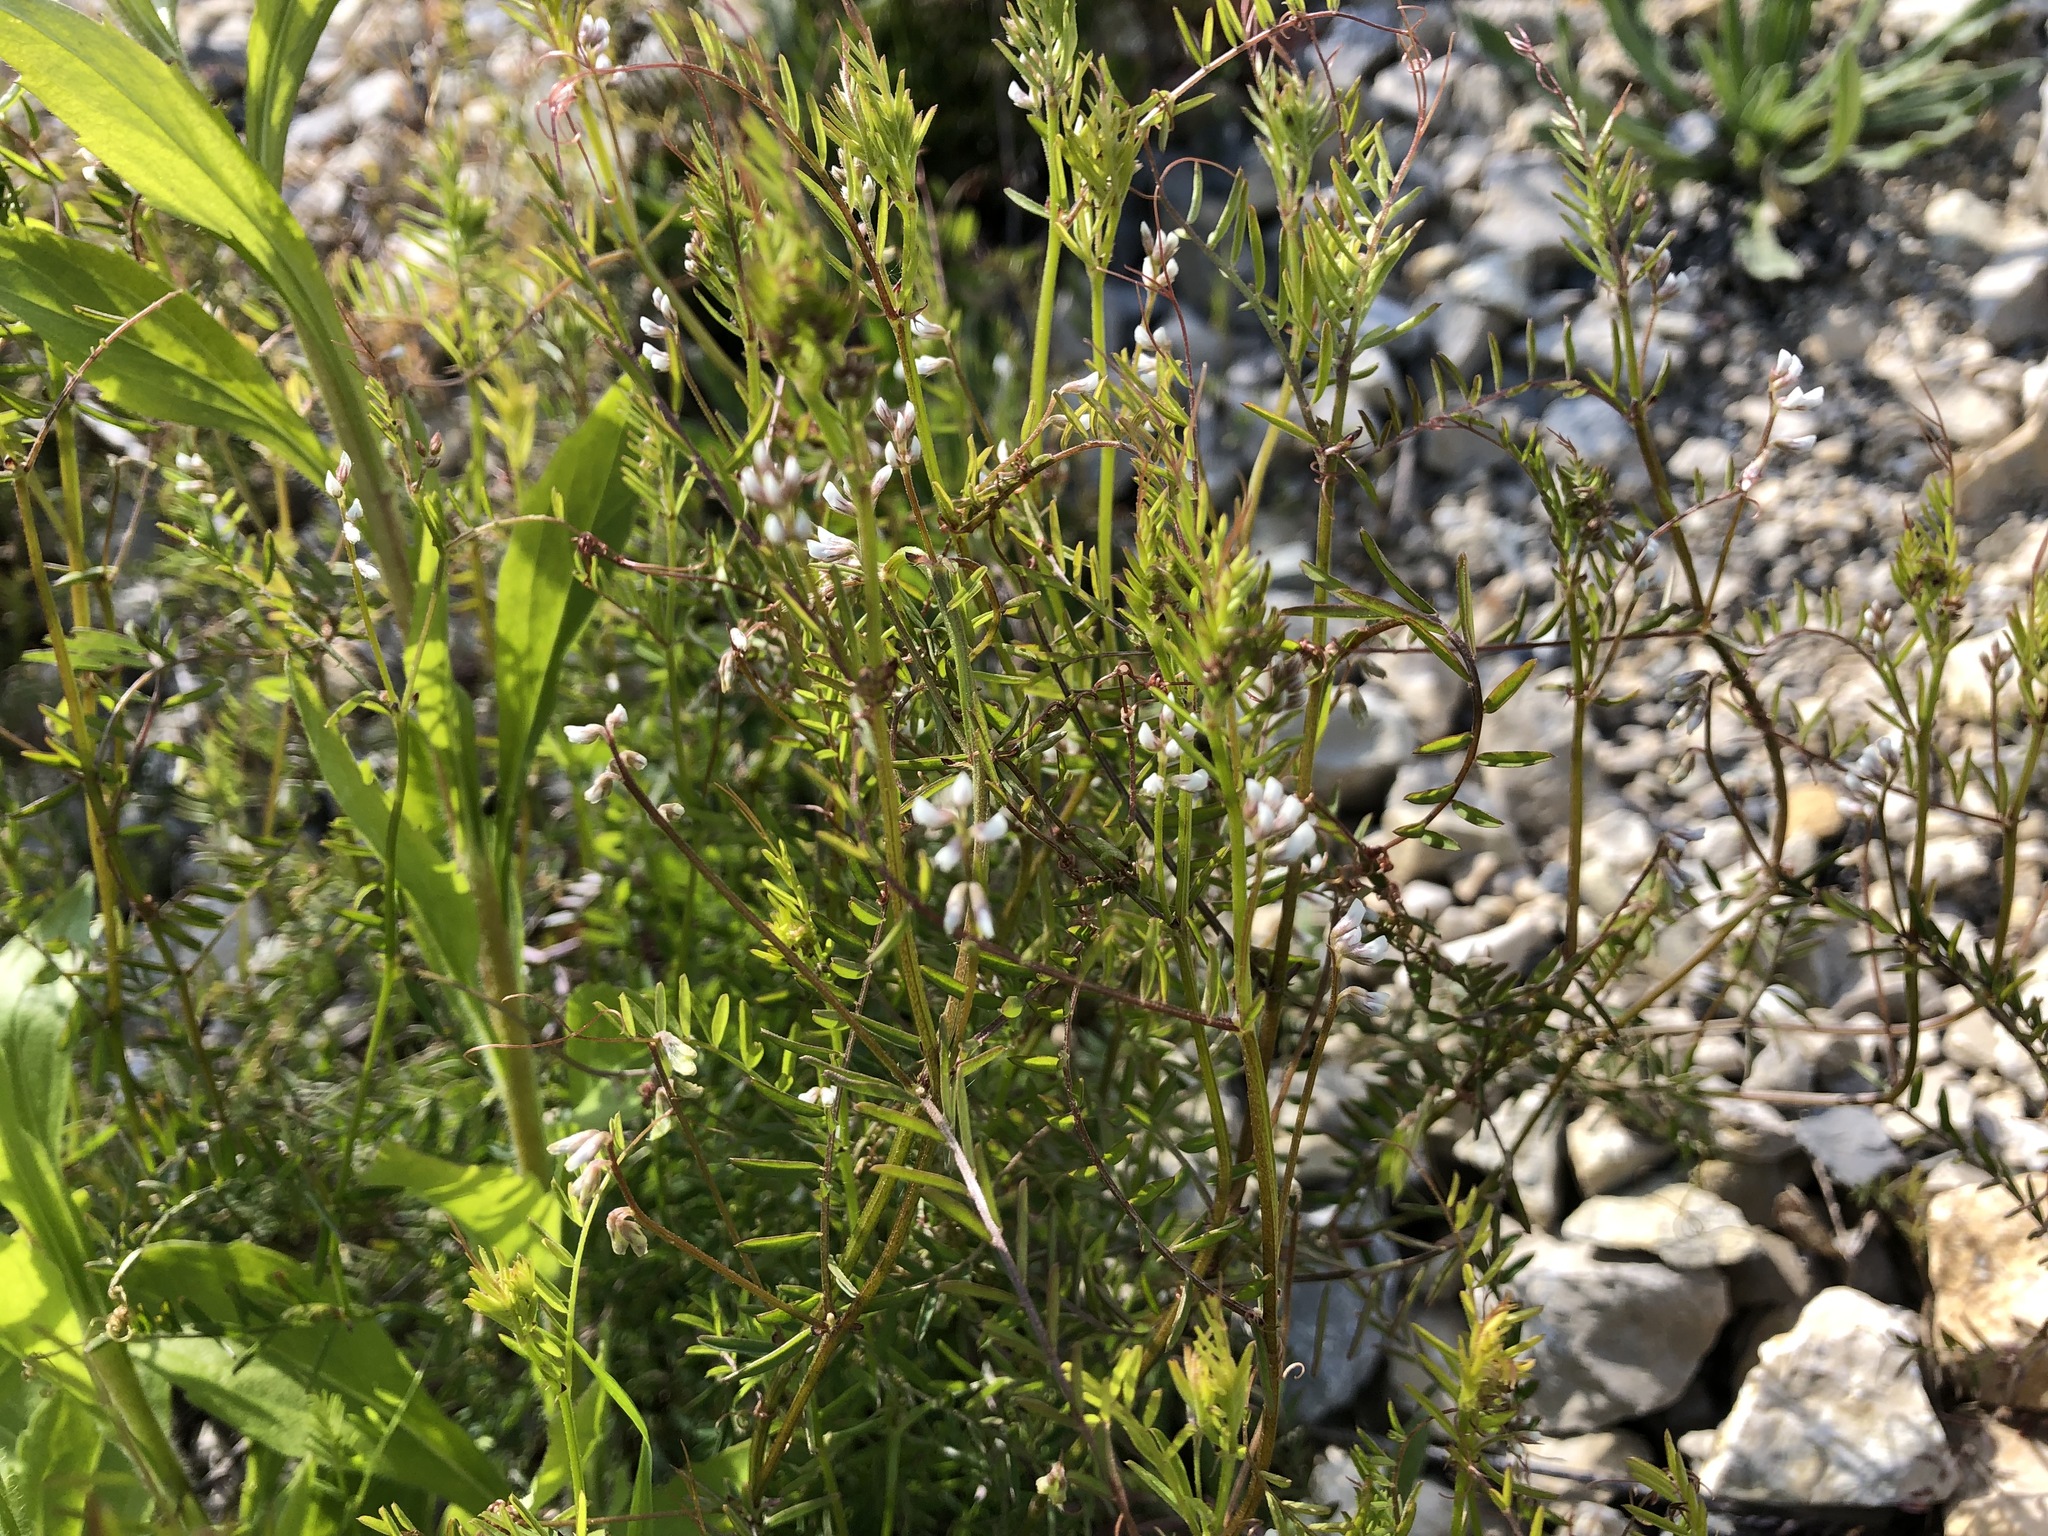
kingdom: Plantae
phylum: Tracheophyta
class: Magnoliopsida
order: Fabales
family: Fabaceae
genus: Vicia
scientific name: Vicia hirsuta
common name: Tiny vetch
